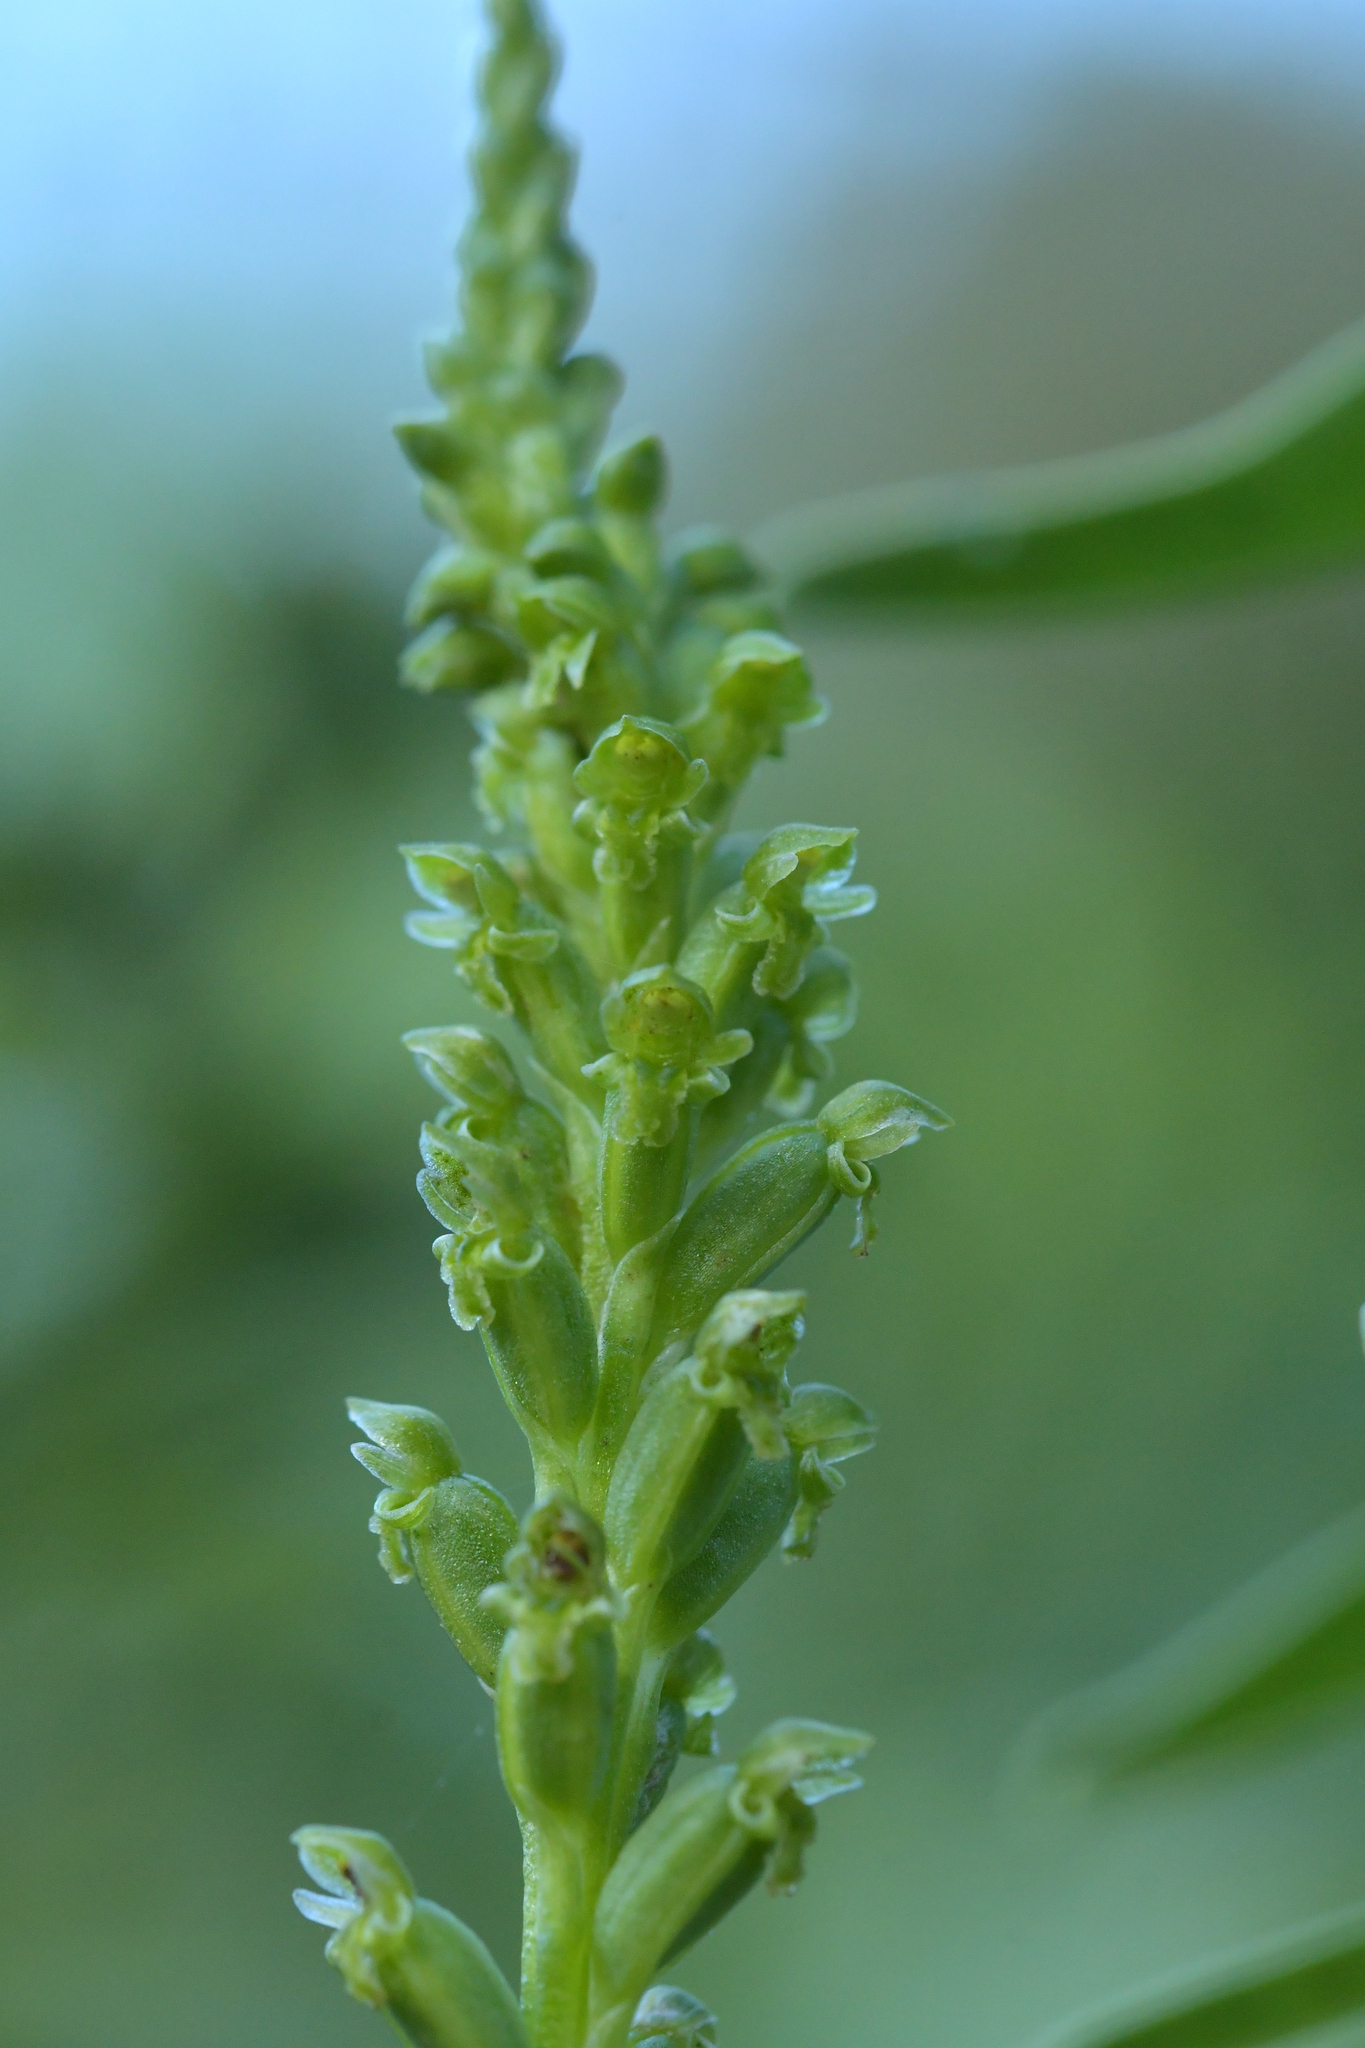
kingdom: Plantae
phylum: Tracheophyta
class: Liliopsida
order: Asparagales
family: Orchidaceae
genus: Microtis
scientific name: Microtis unifolia
